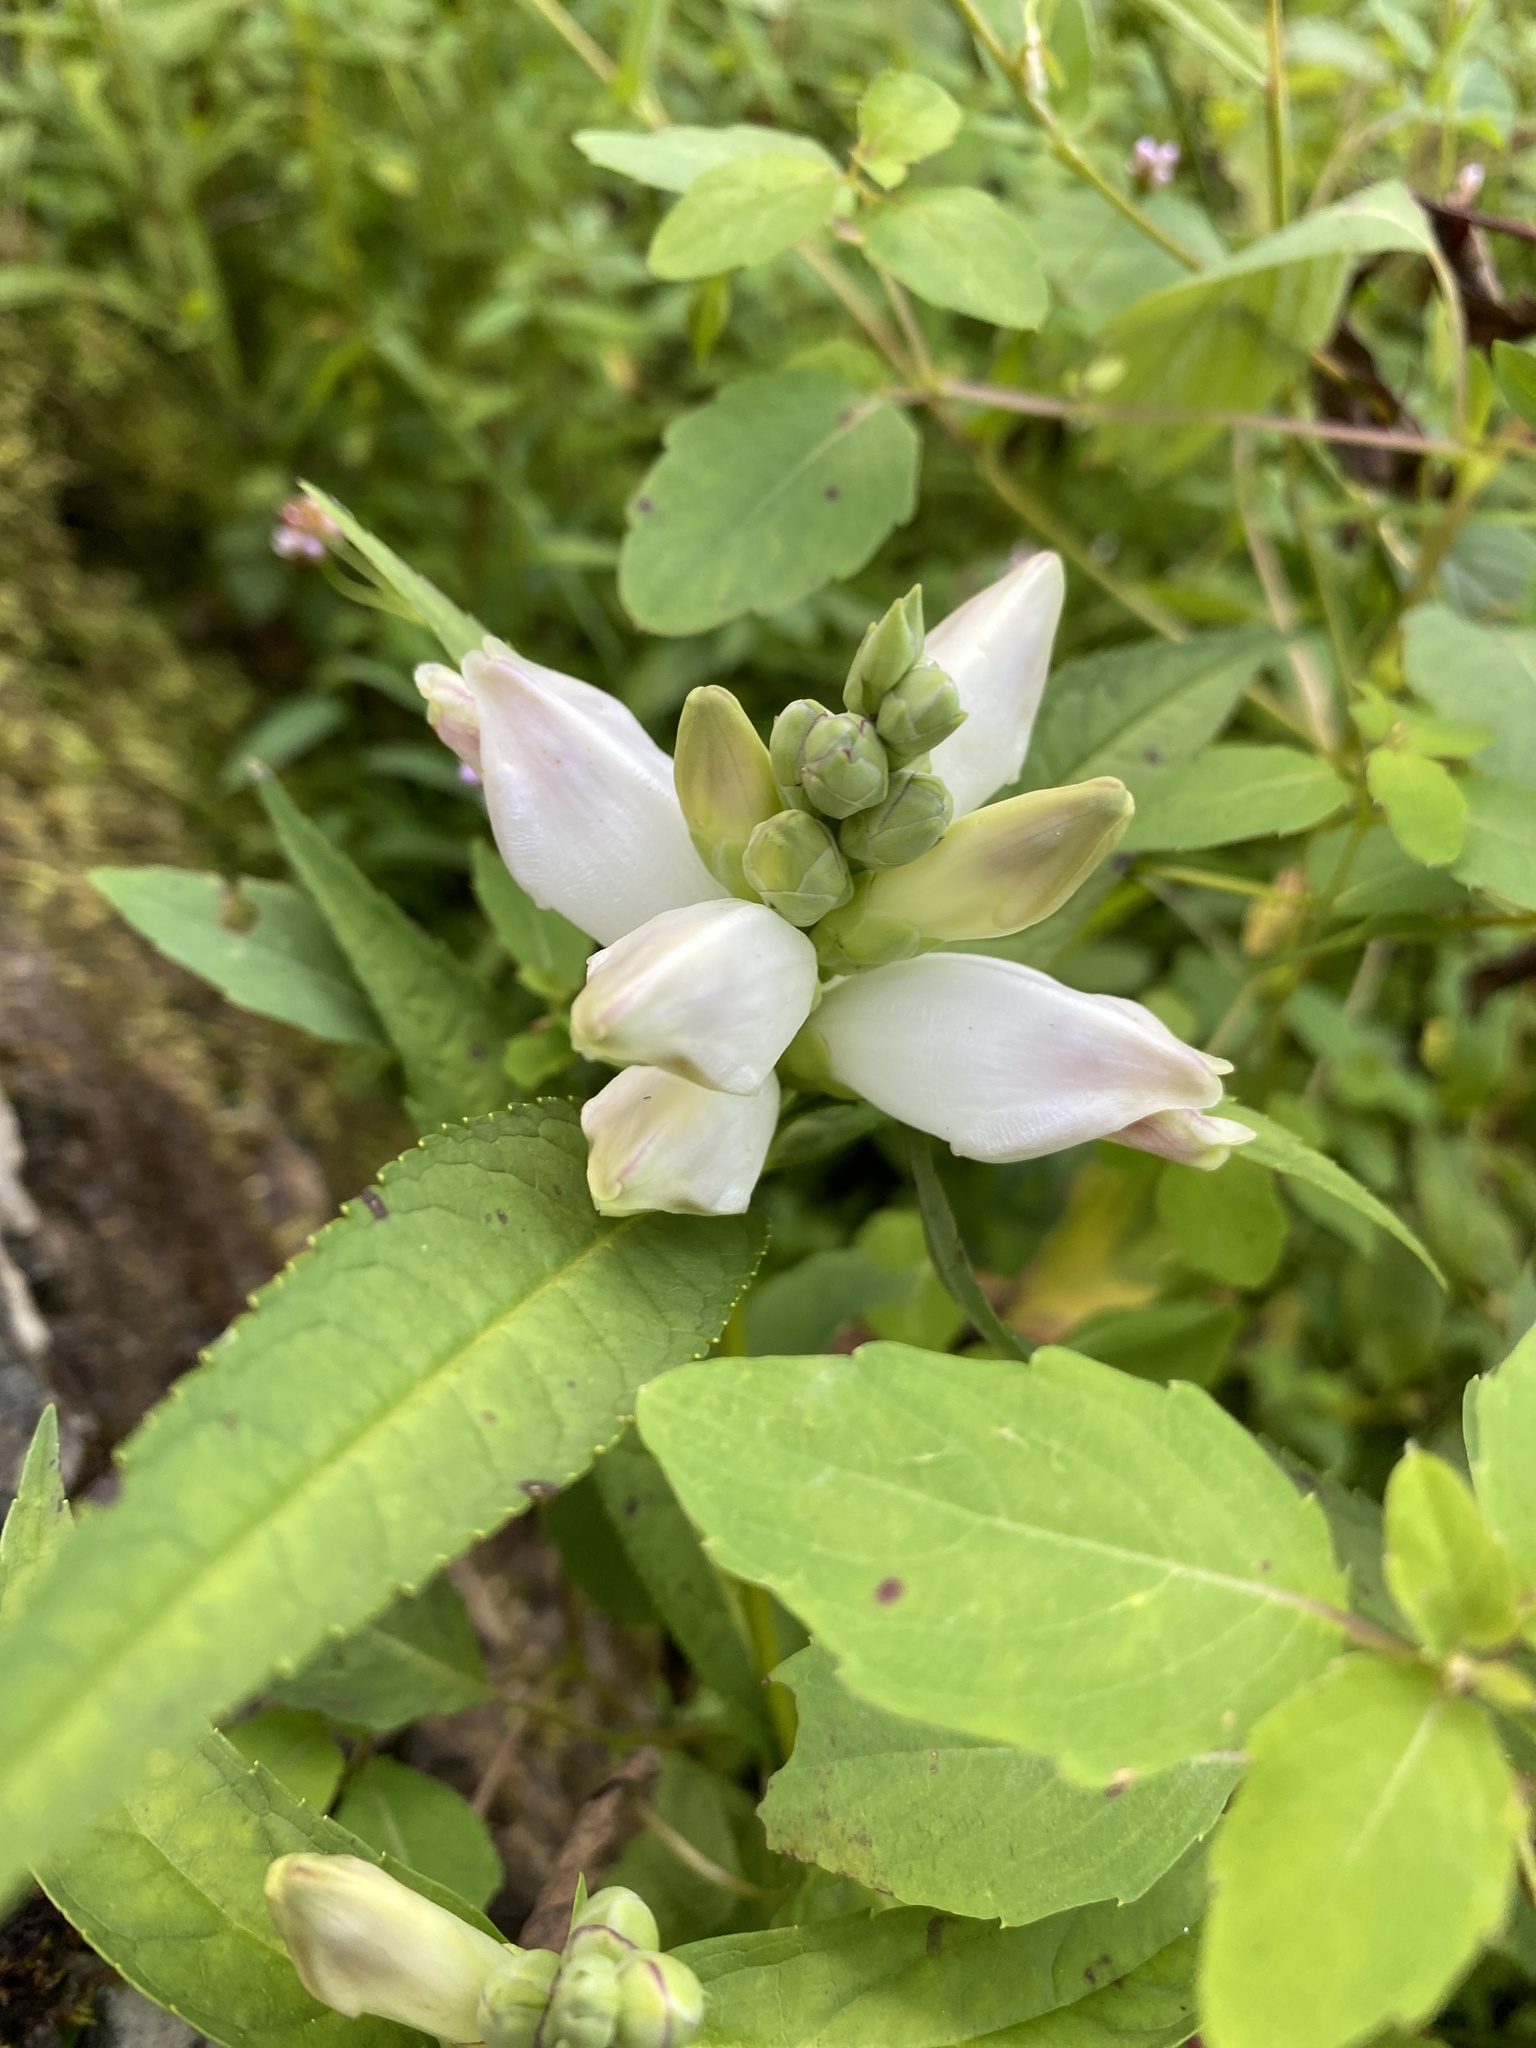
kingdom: Plantae
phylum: Tracheophyta
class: Magnoliopsida
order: Lamiales
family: Plantaginaceae
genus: Chelone
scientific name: Chelone glabra
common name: Snakehead
